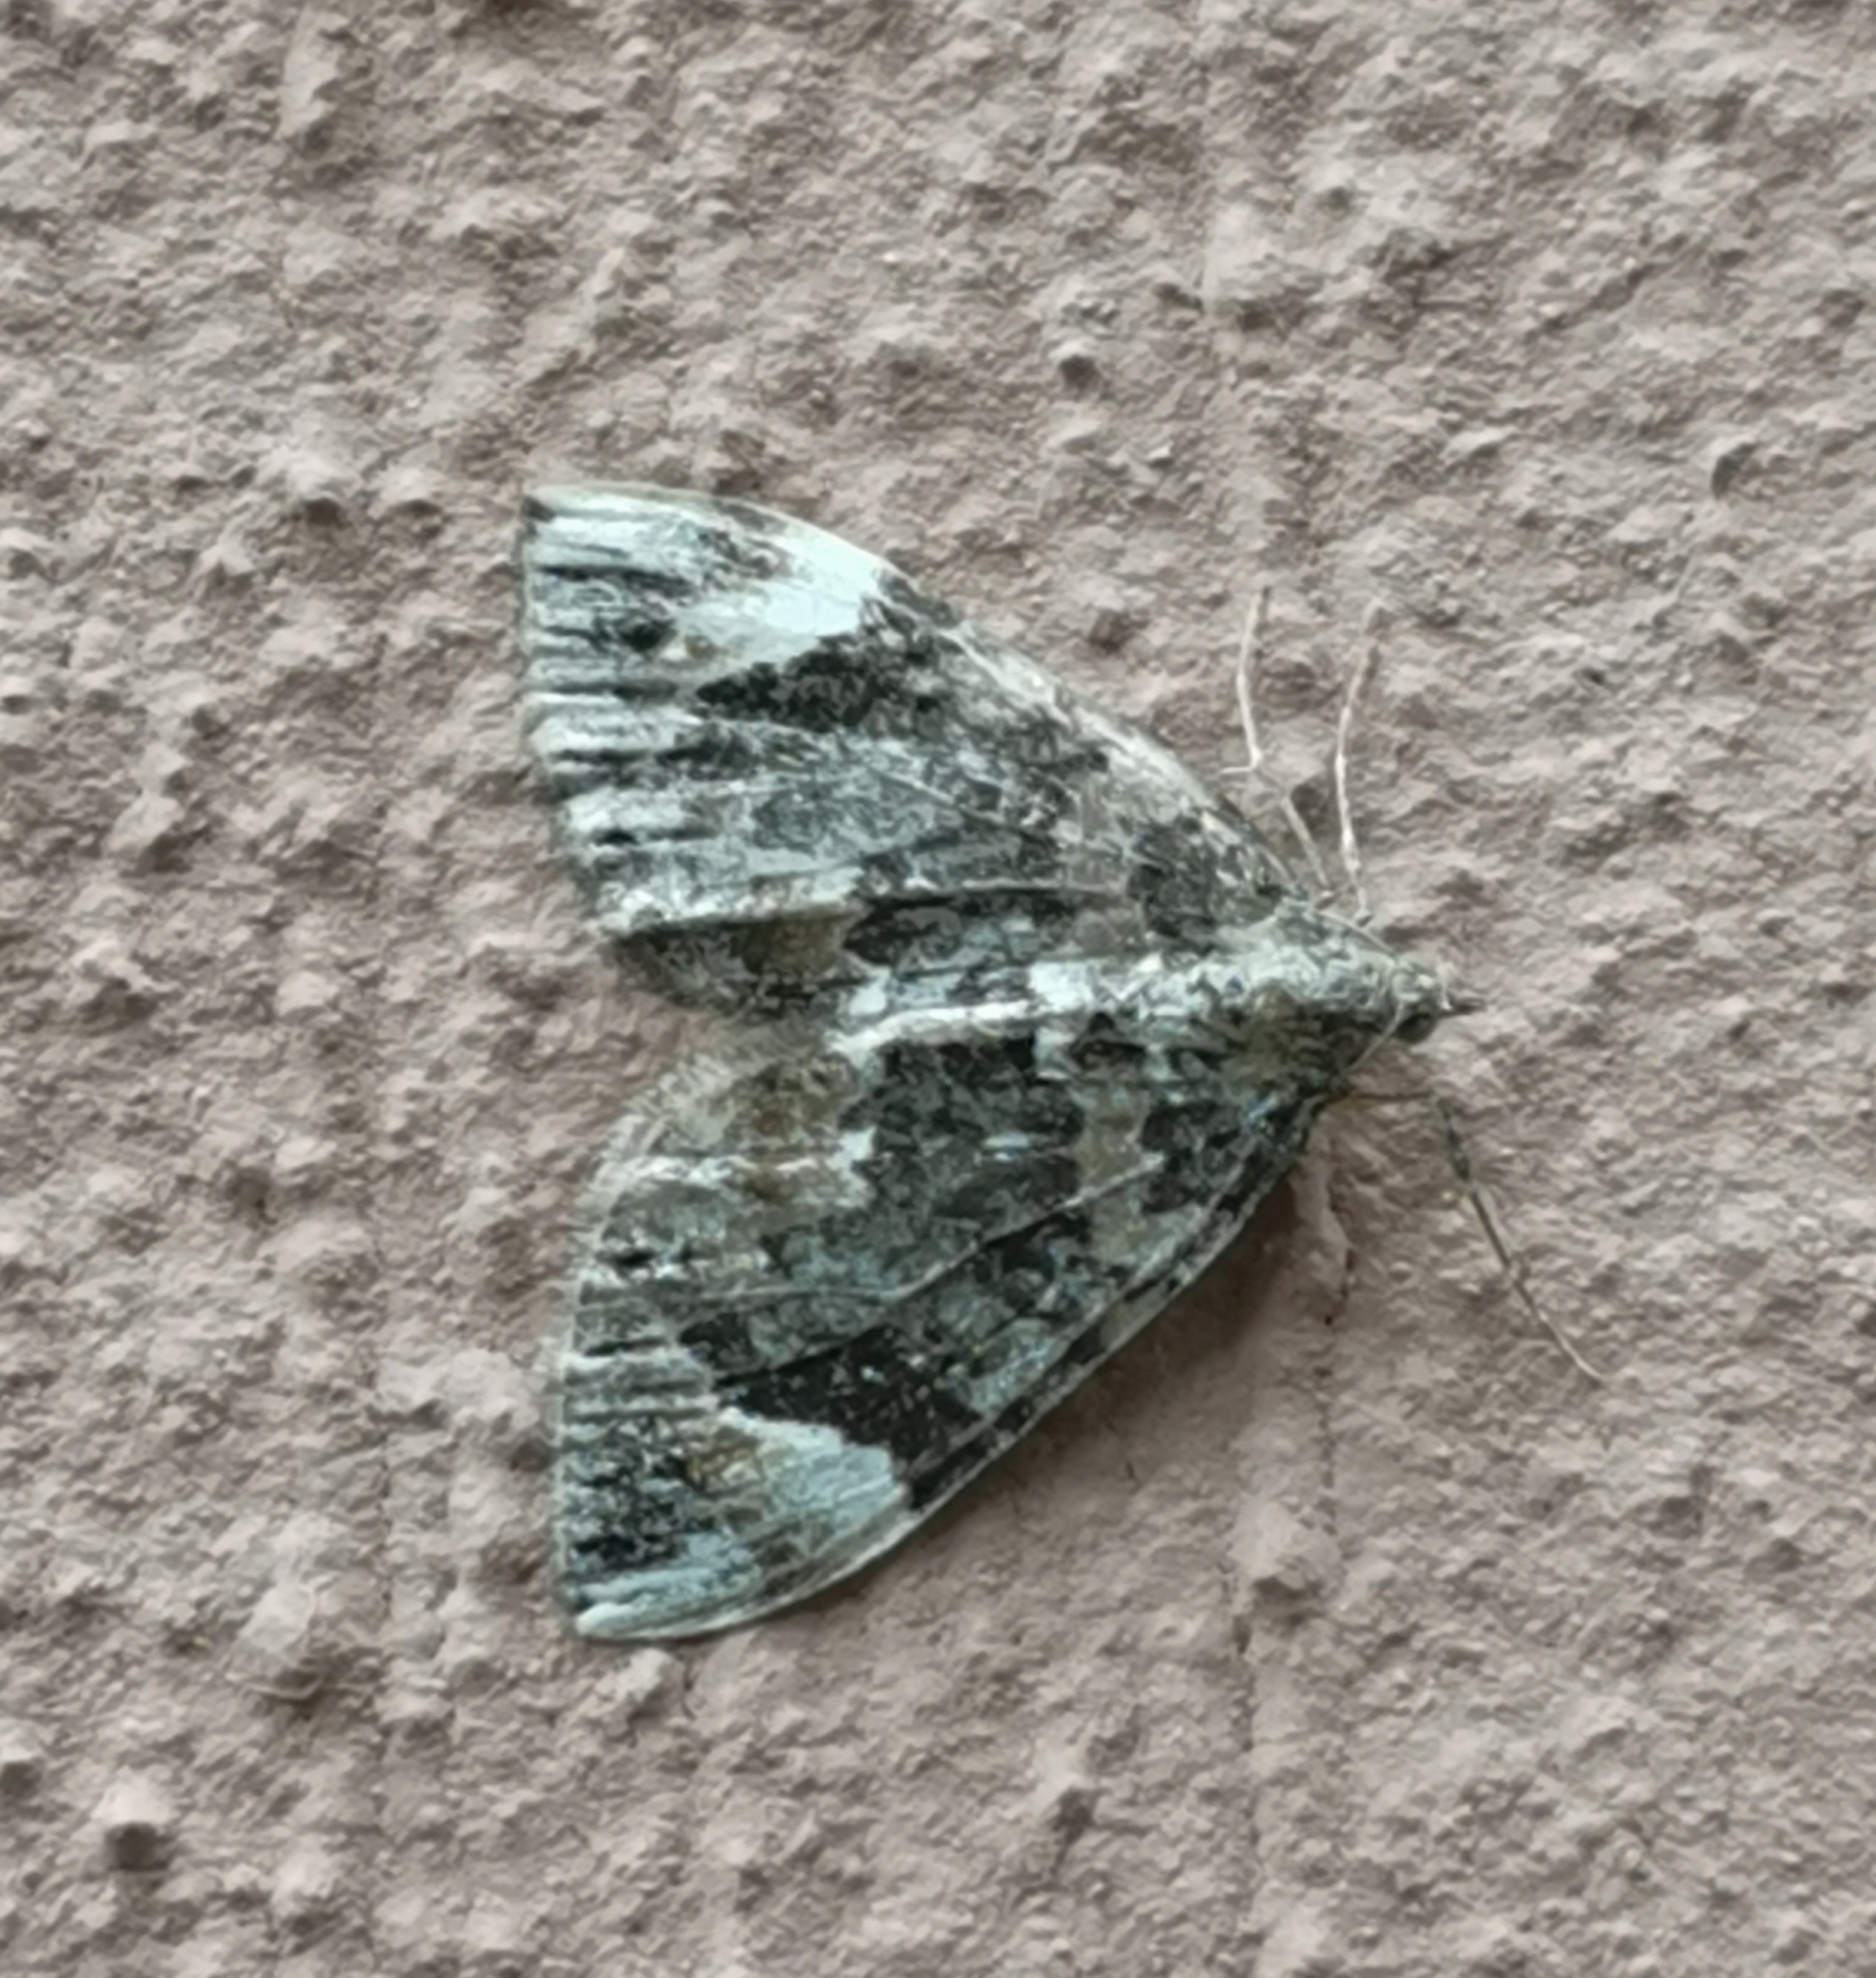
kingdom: Animalia
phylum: Arthropoda
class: Insecta
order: Lepidoptera
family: Geometridae
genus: Dysstroma
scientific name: Dysstroma citrata
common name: Dark marbled carpet
